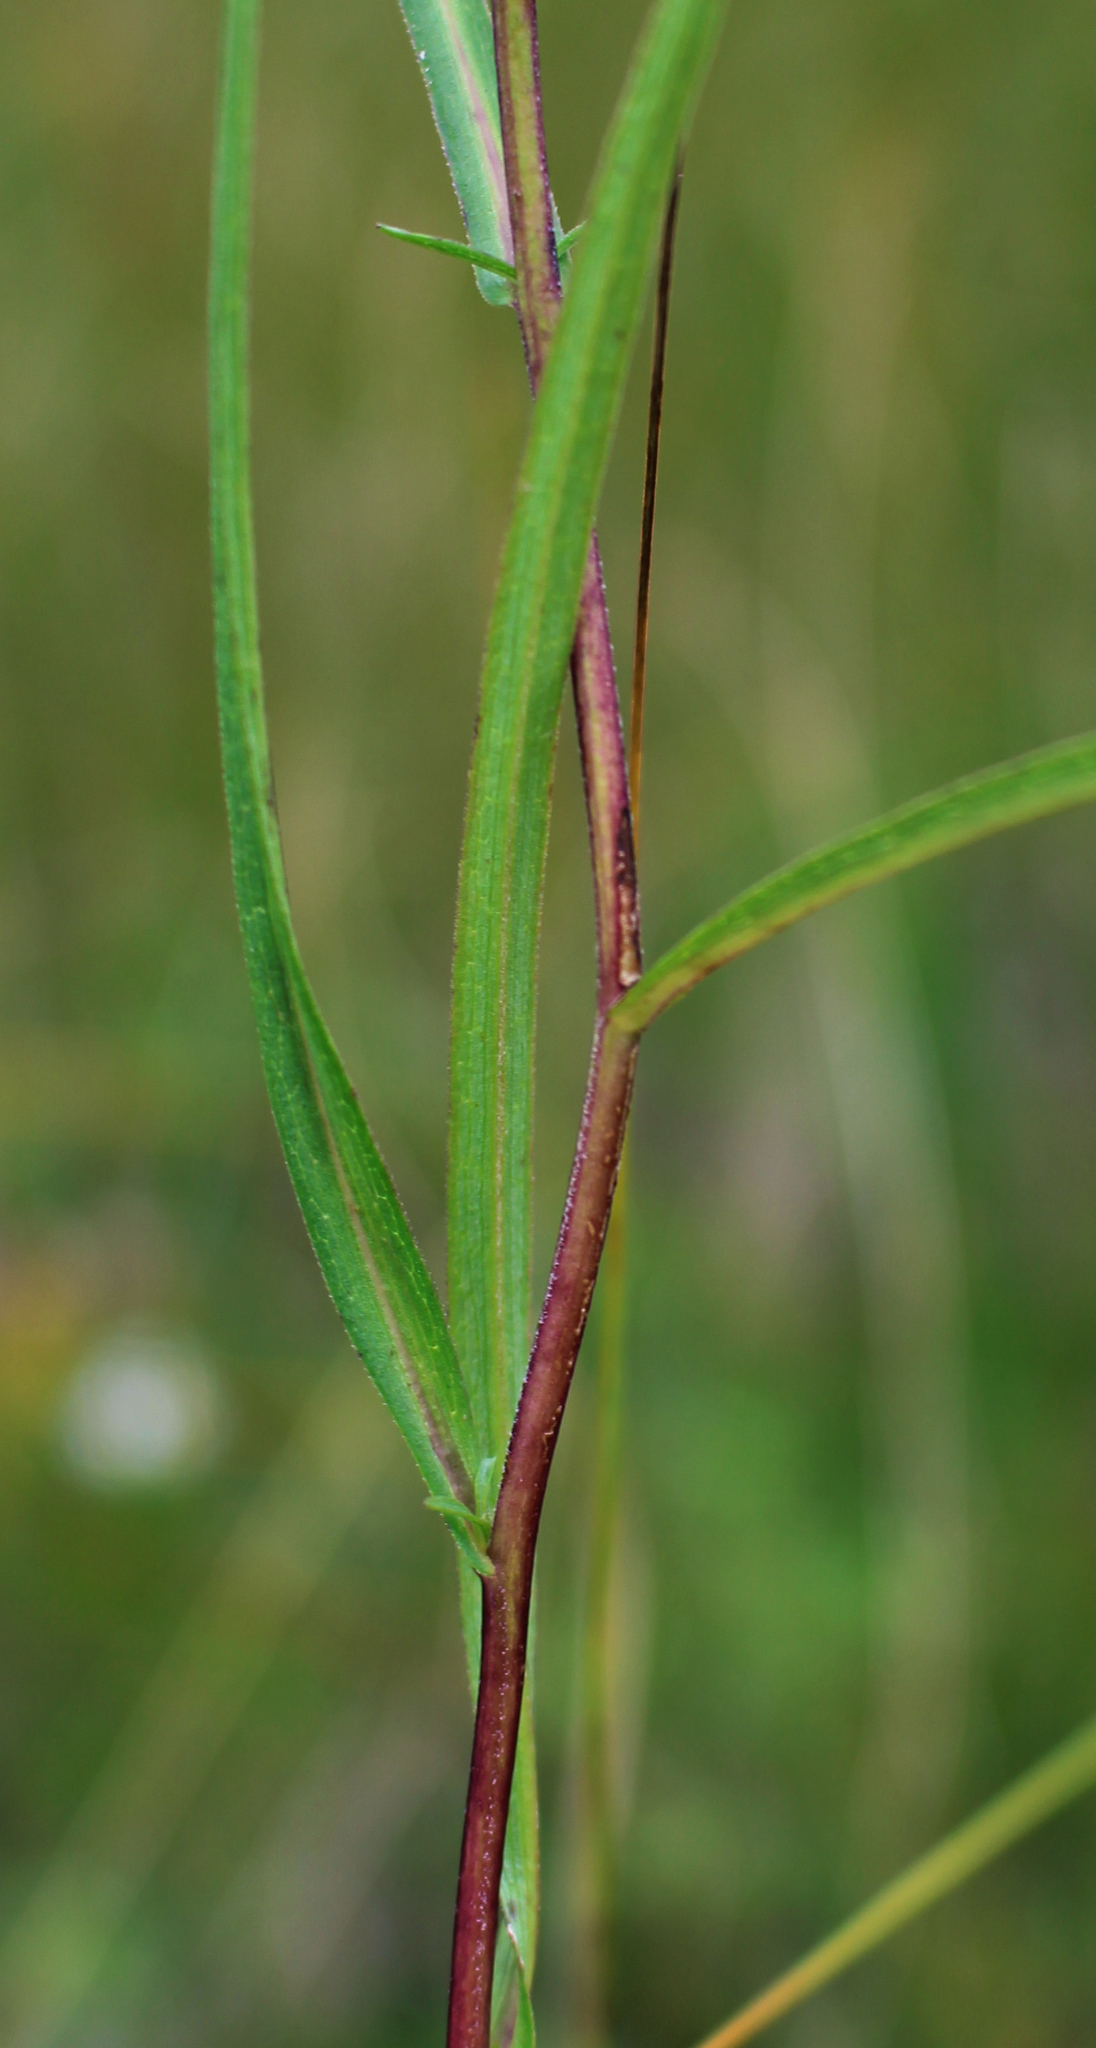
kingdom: Plantae
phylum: Tracheophyta
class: Magnoliopsida
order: Asterales
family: Asteraceae
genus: Symphyotrichum
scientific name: Symphyotrichum boreale
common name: Northern bog aster
